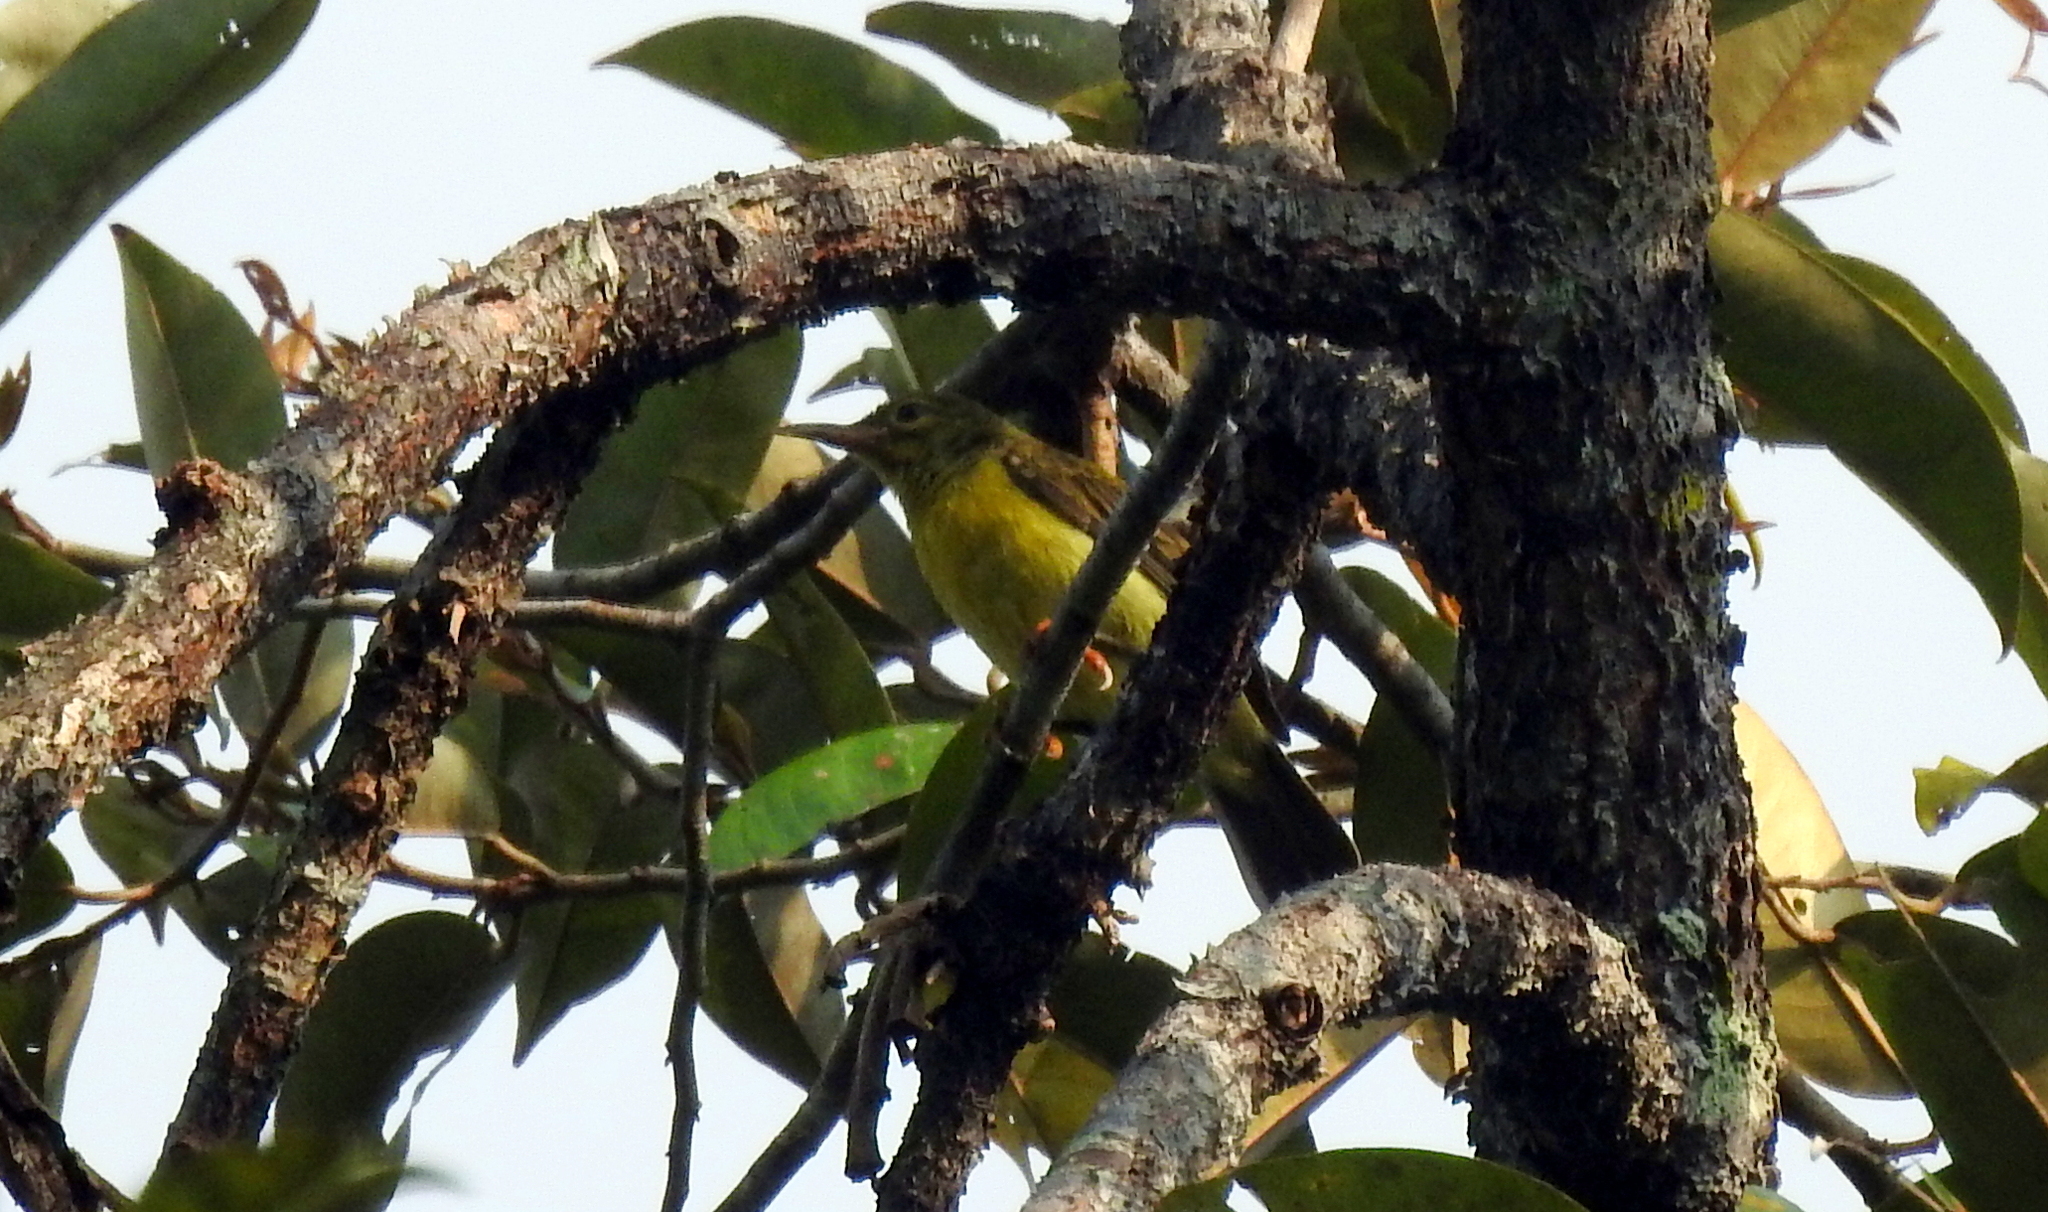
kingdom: Animalia
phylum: Chordata
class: Aves
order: Passeriformes
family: Nectariniidae
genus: Anthreptes
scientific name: Anthreptes malacensis
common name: Brown-throated sunbird
